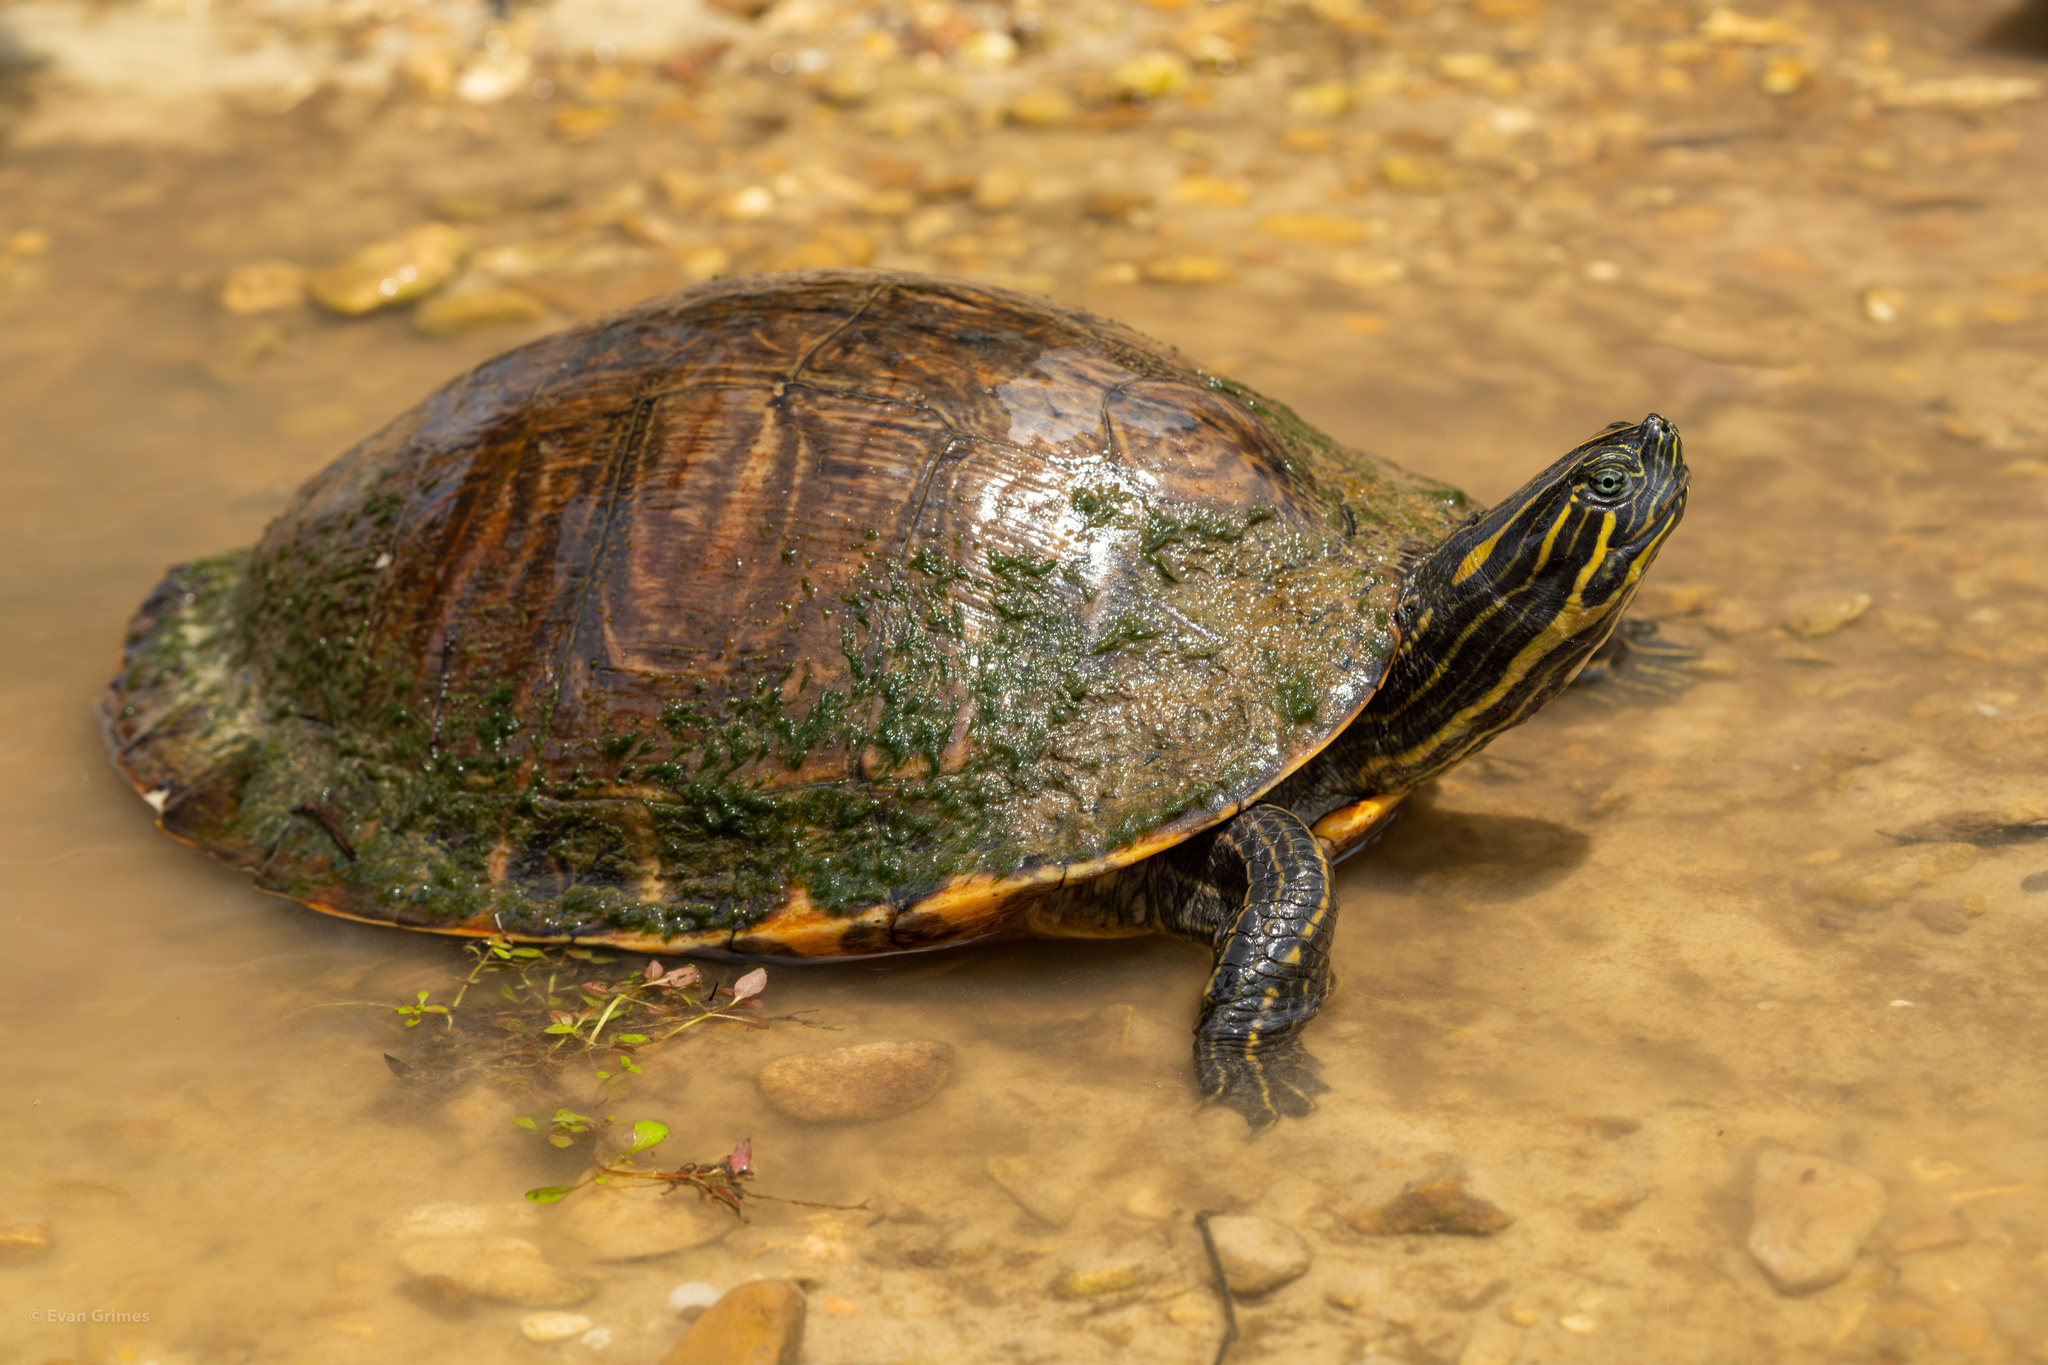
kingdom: Animalia
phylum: Chordata
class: Testudines
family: Emydidae
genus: Pseudemys
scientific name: Pseudemys concinna
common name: Eastern river cooter
